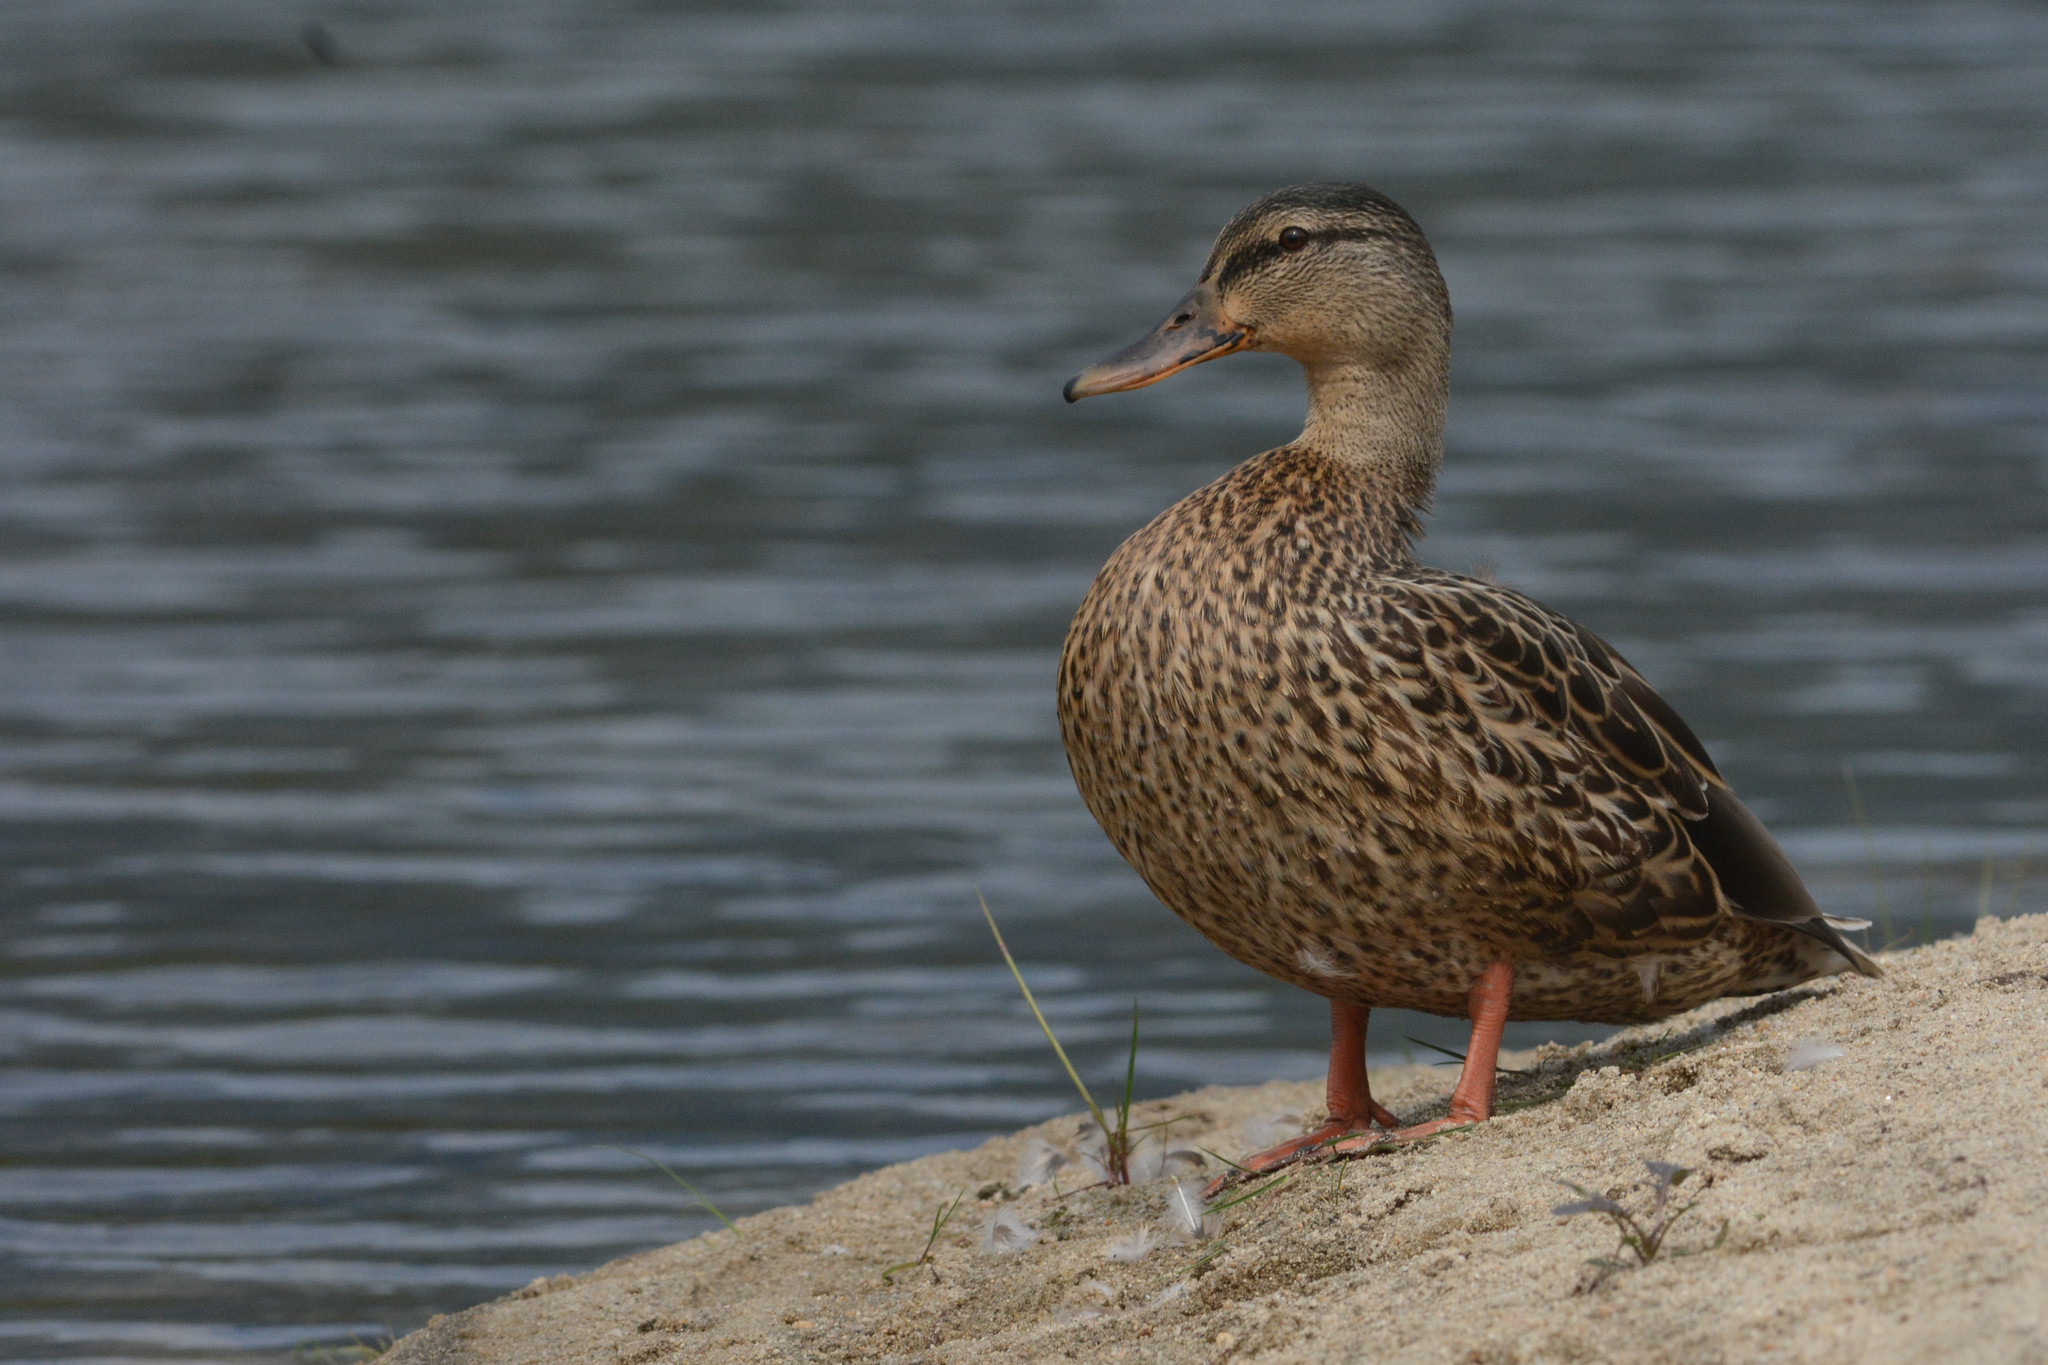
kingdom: Animalia
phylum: Chordata
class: Aves
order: Anseriformes
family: Anatidae
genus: Anas
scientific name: Anas platyrhynchos
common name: Mallard
